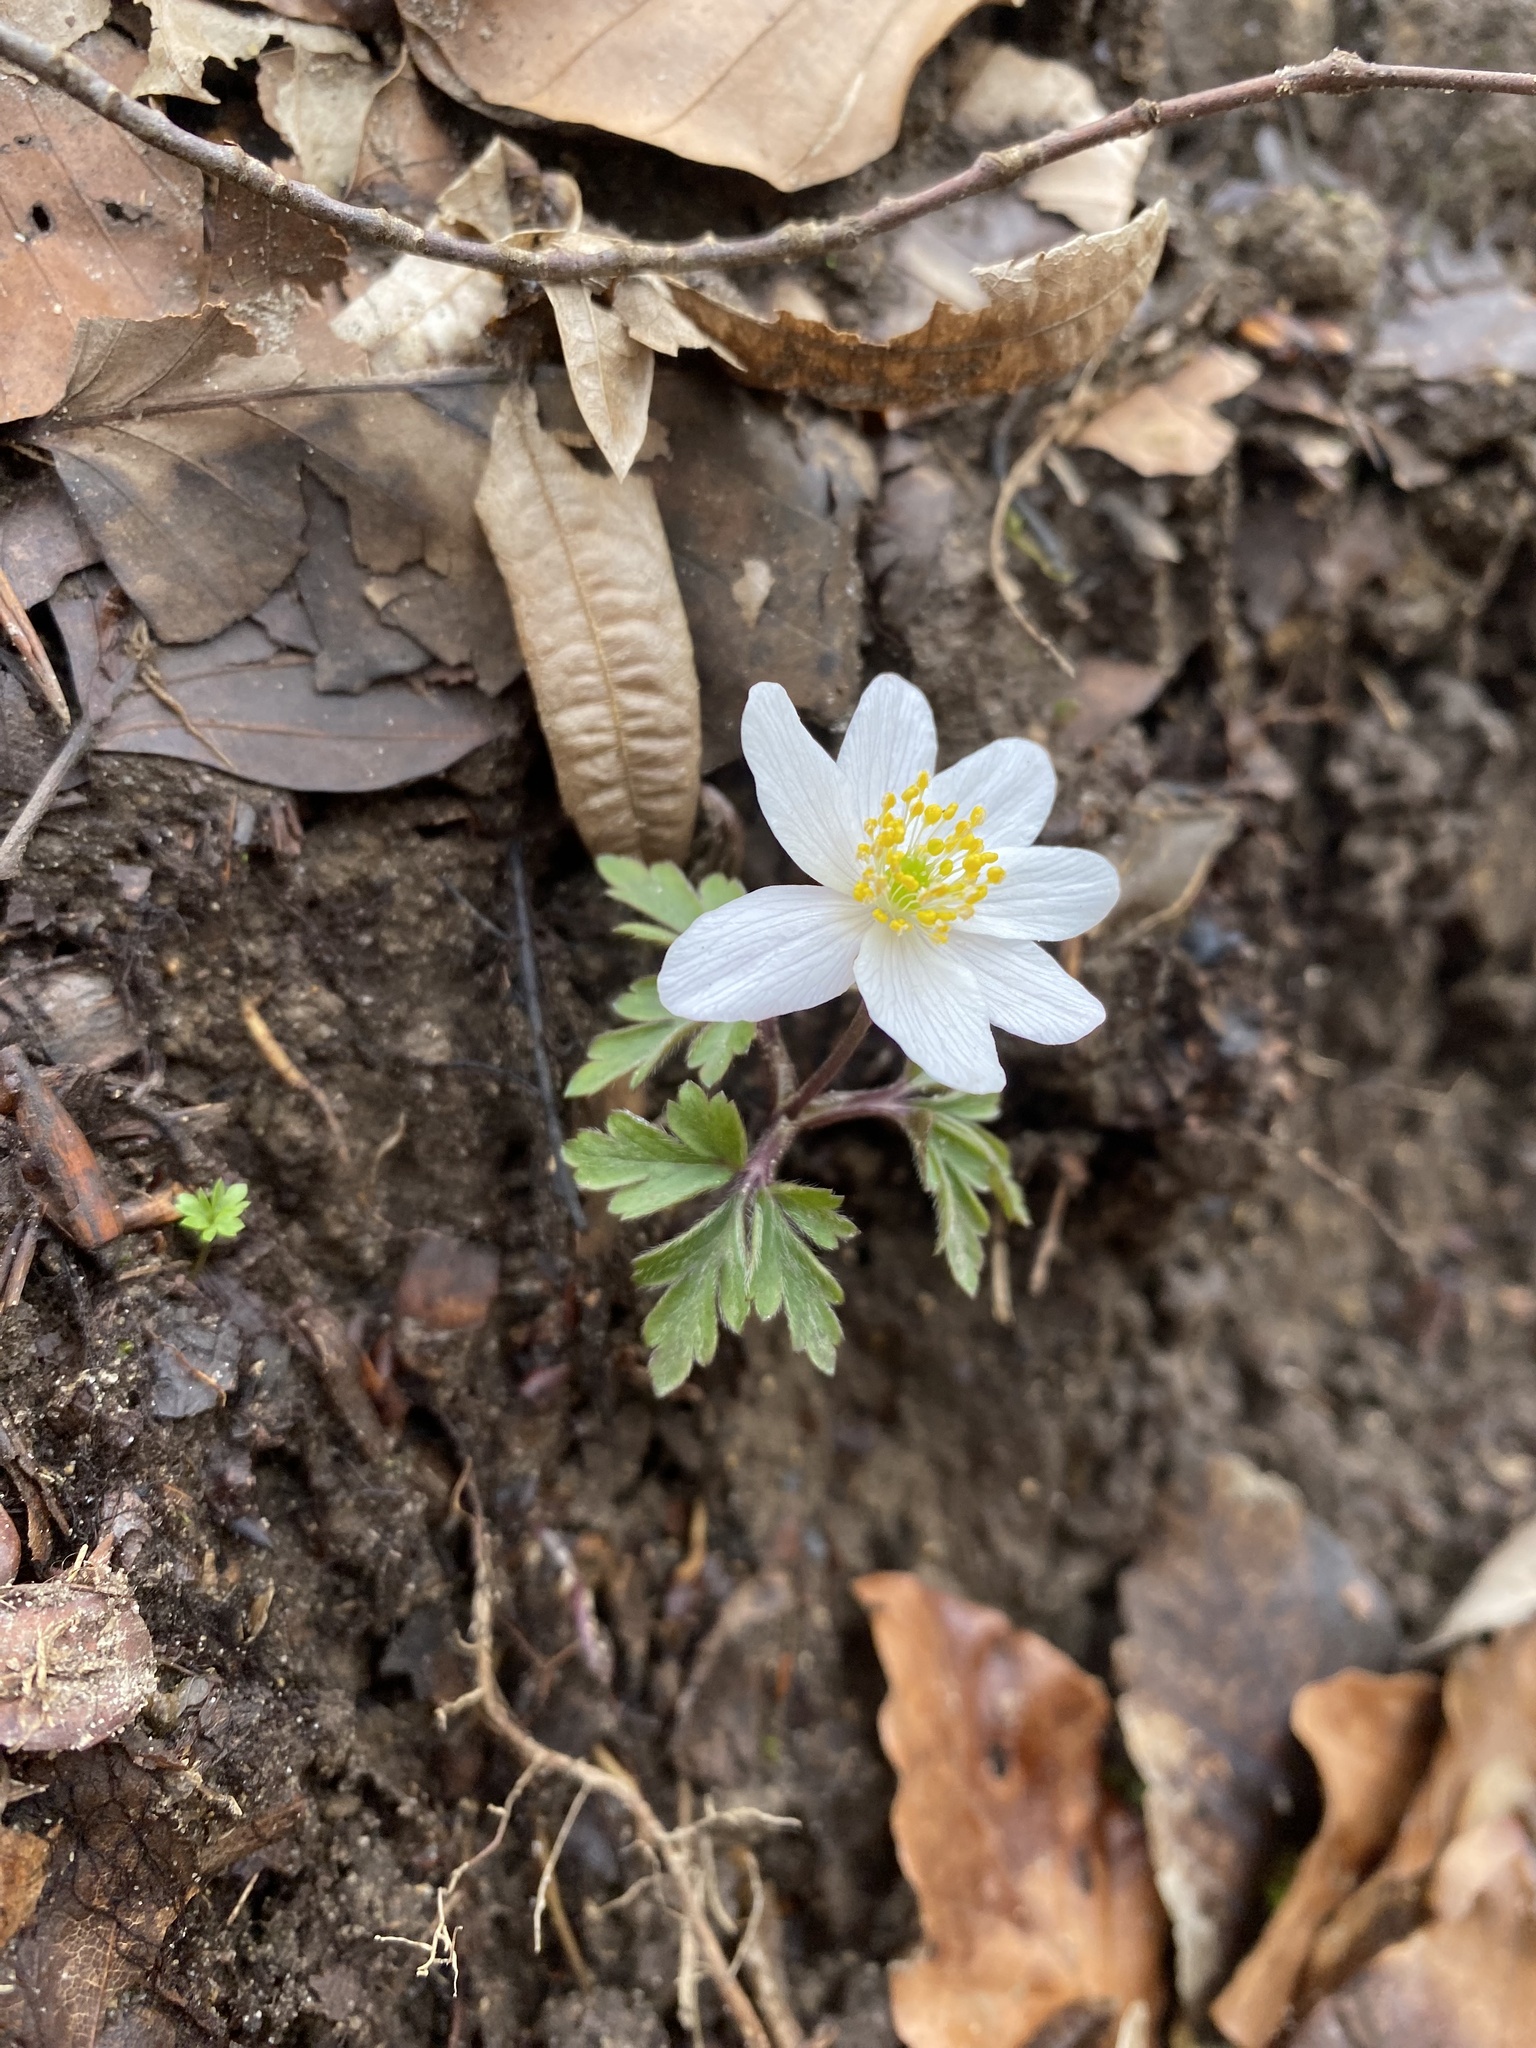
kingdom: Plantae
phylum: Tracheophyta
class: Magnoliopsida
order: Ranunculales
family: Ranunculaceae
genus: Anemone
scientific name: Anemone nemorosa
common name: Wood anemone
